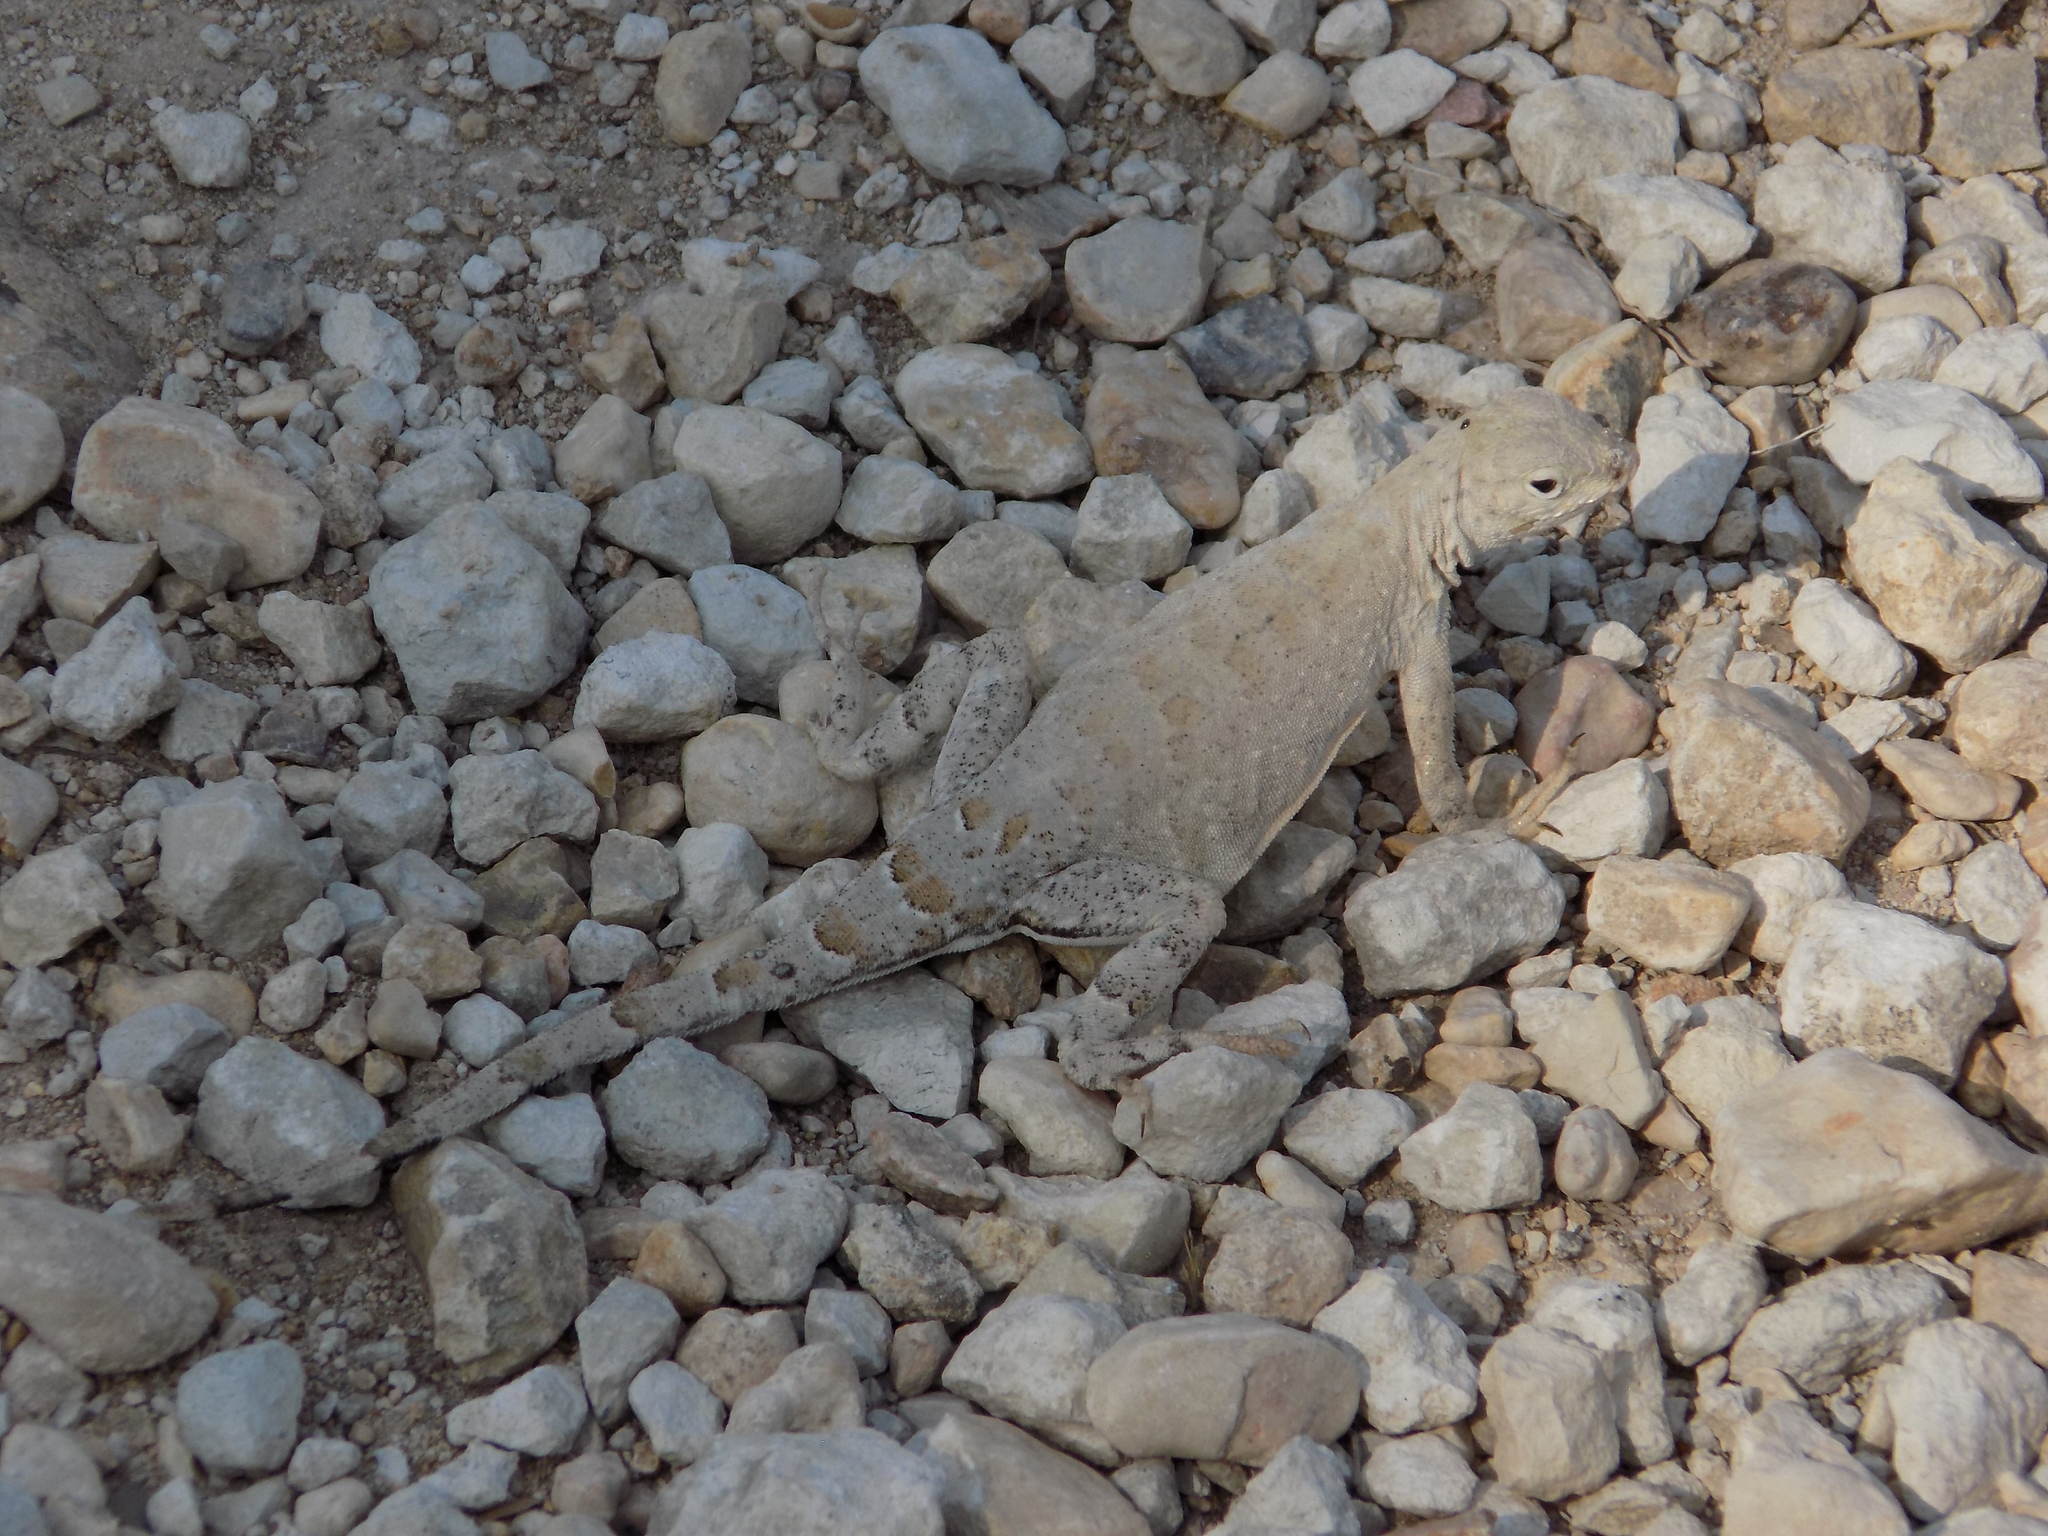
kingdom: Animalia
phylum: Chordata
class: Squamata
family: Phrynosomatidae
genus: Cophosaurus
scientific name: Cophosaurus texanus
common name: Greater earless lizard
